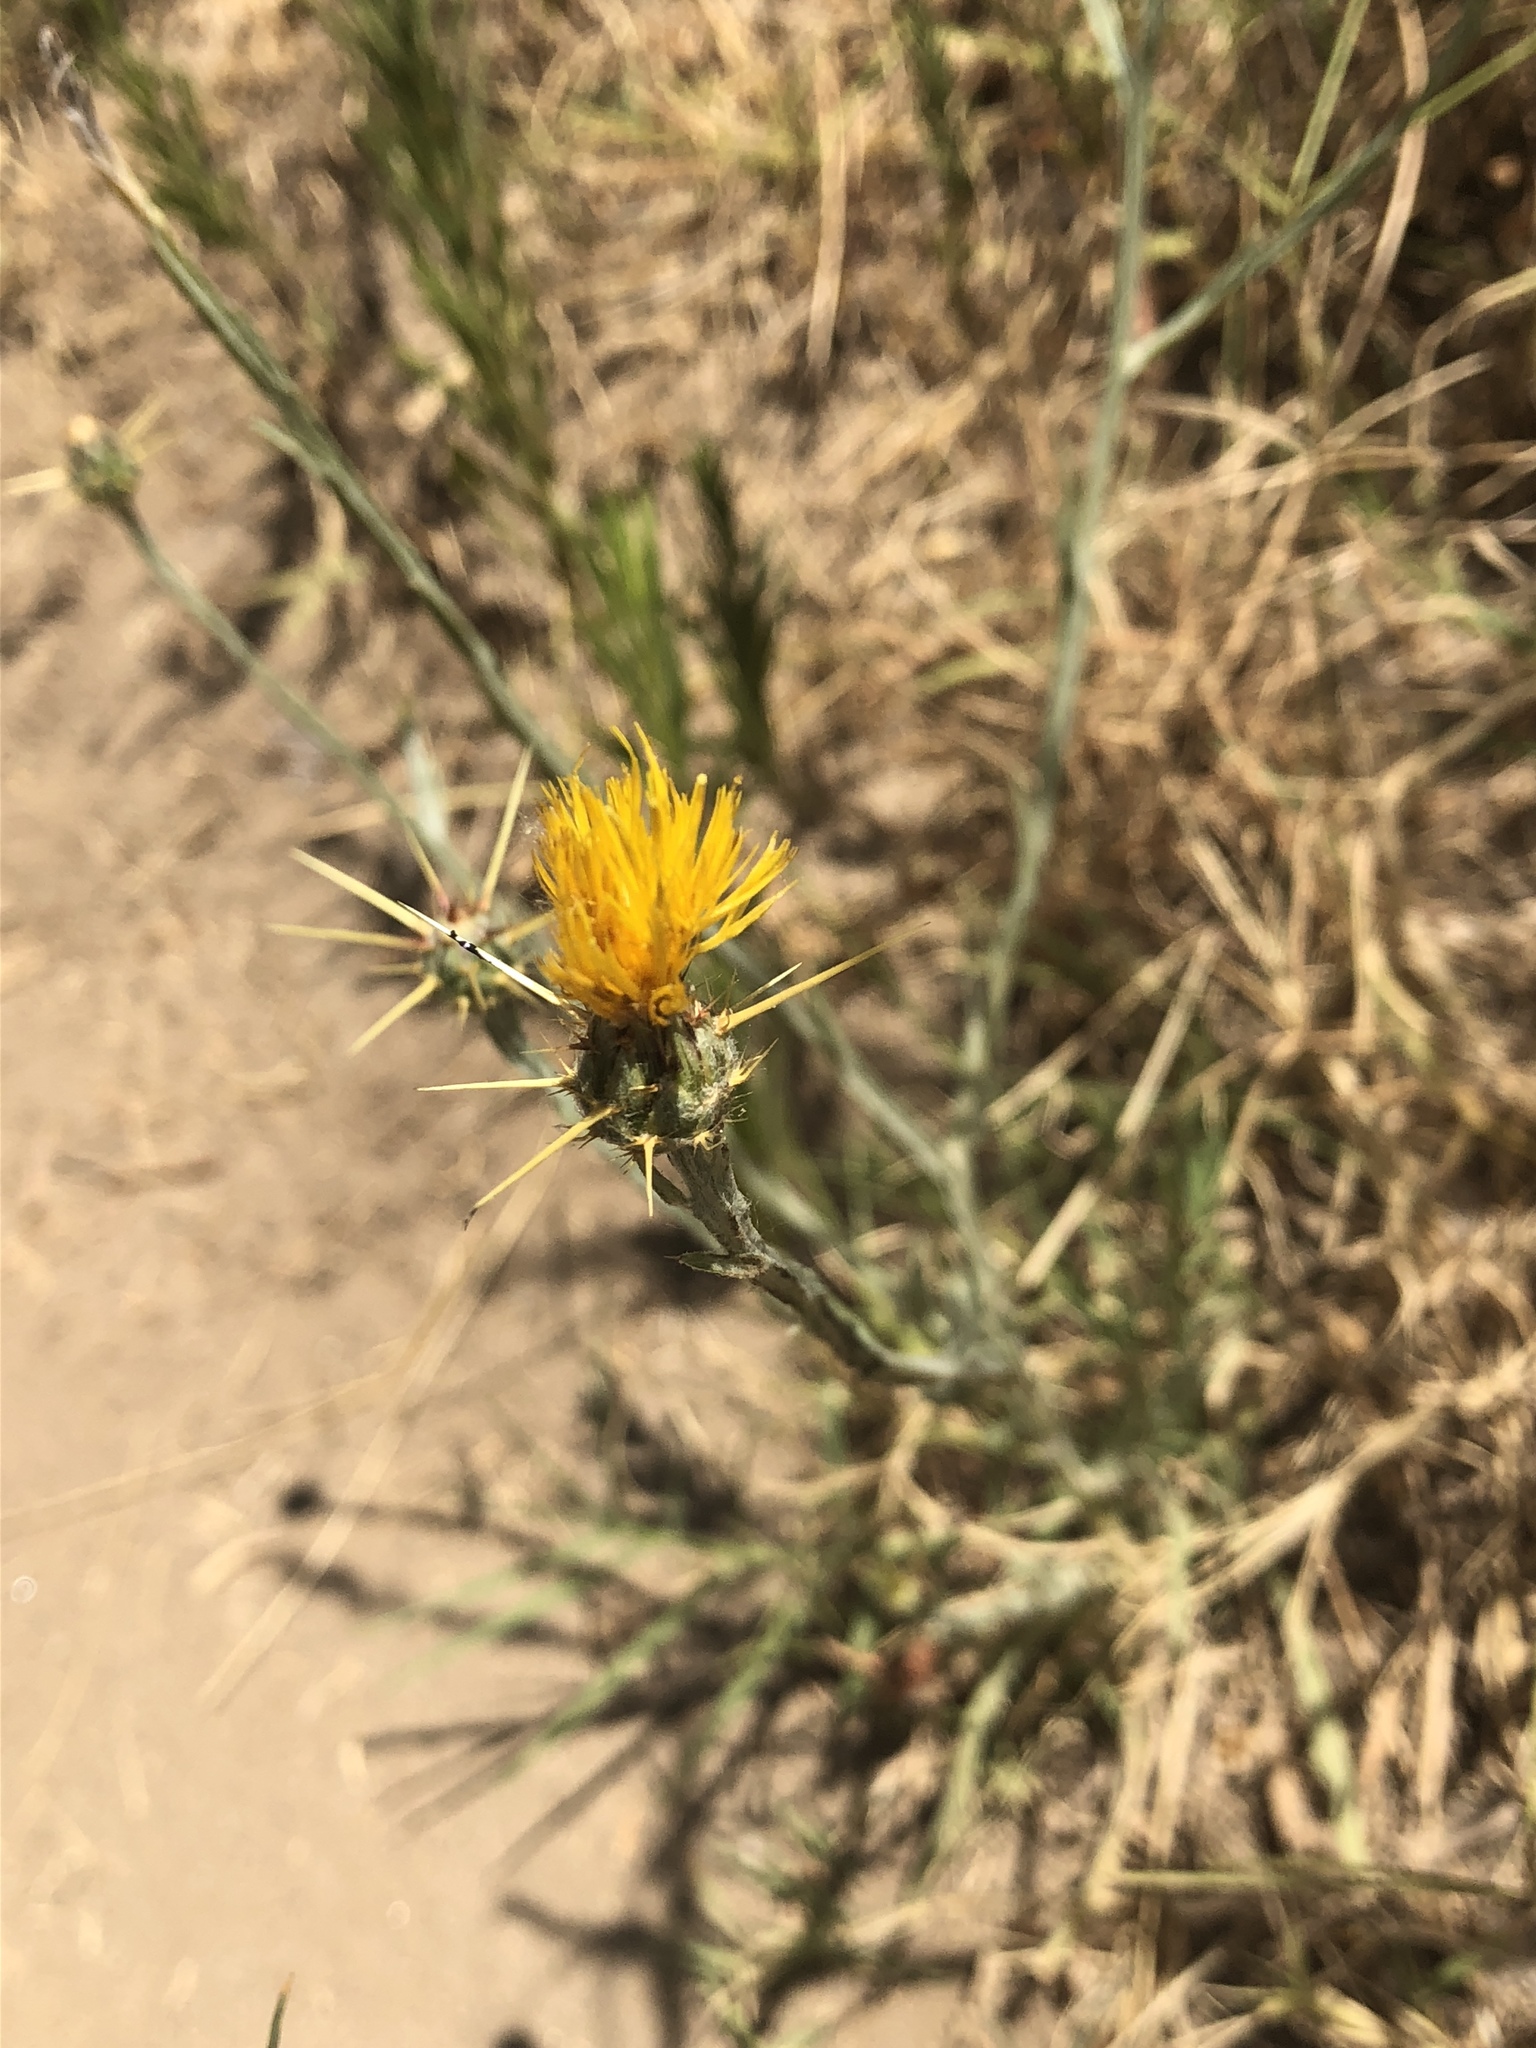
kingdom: Plantae
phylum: Tracheophyta
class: Magnoliopsida
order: Asterales
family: Asteraceae
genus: Centaurea
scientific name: Centaurea solstitialis
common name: Yellow star-thistle
